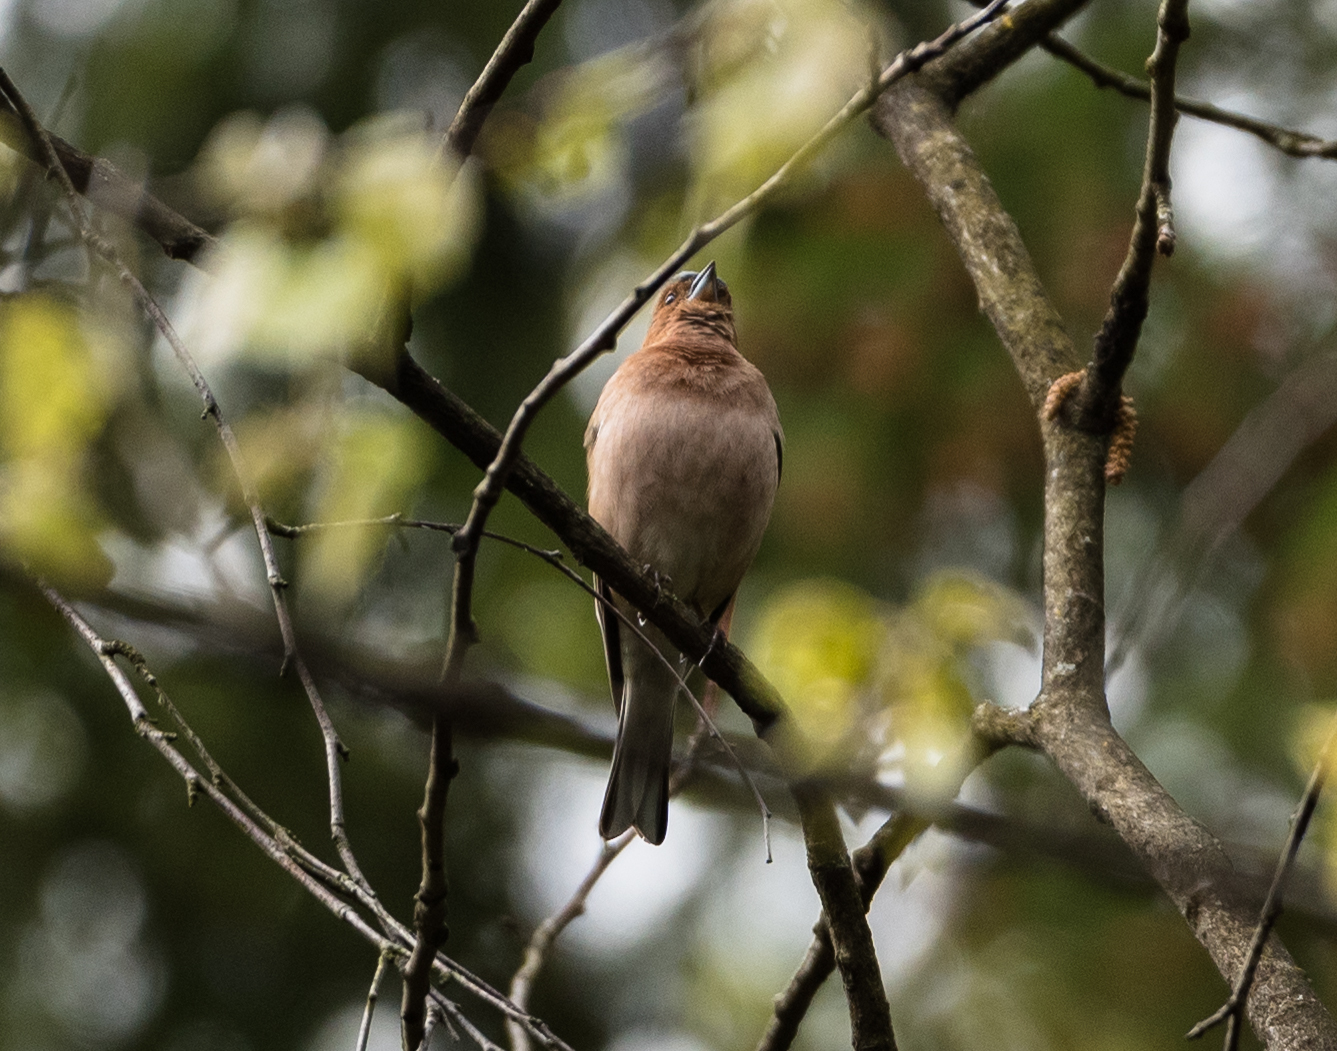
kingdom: Animalia
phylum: Chordata
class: Aves
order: Passeriformes
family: Fringillidae
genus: Fringilla
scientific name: Fringilla coelebs
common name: Common chaffinch
